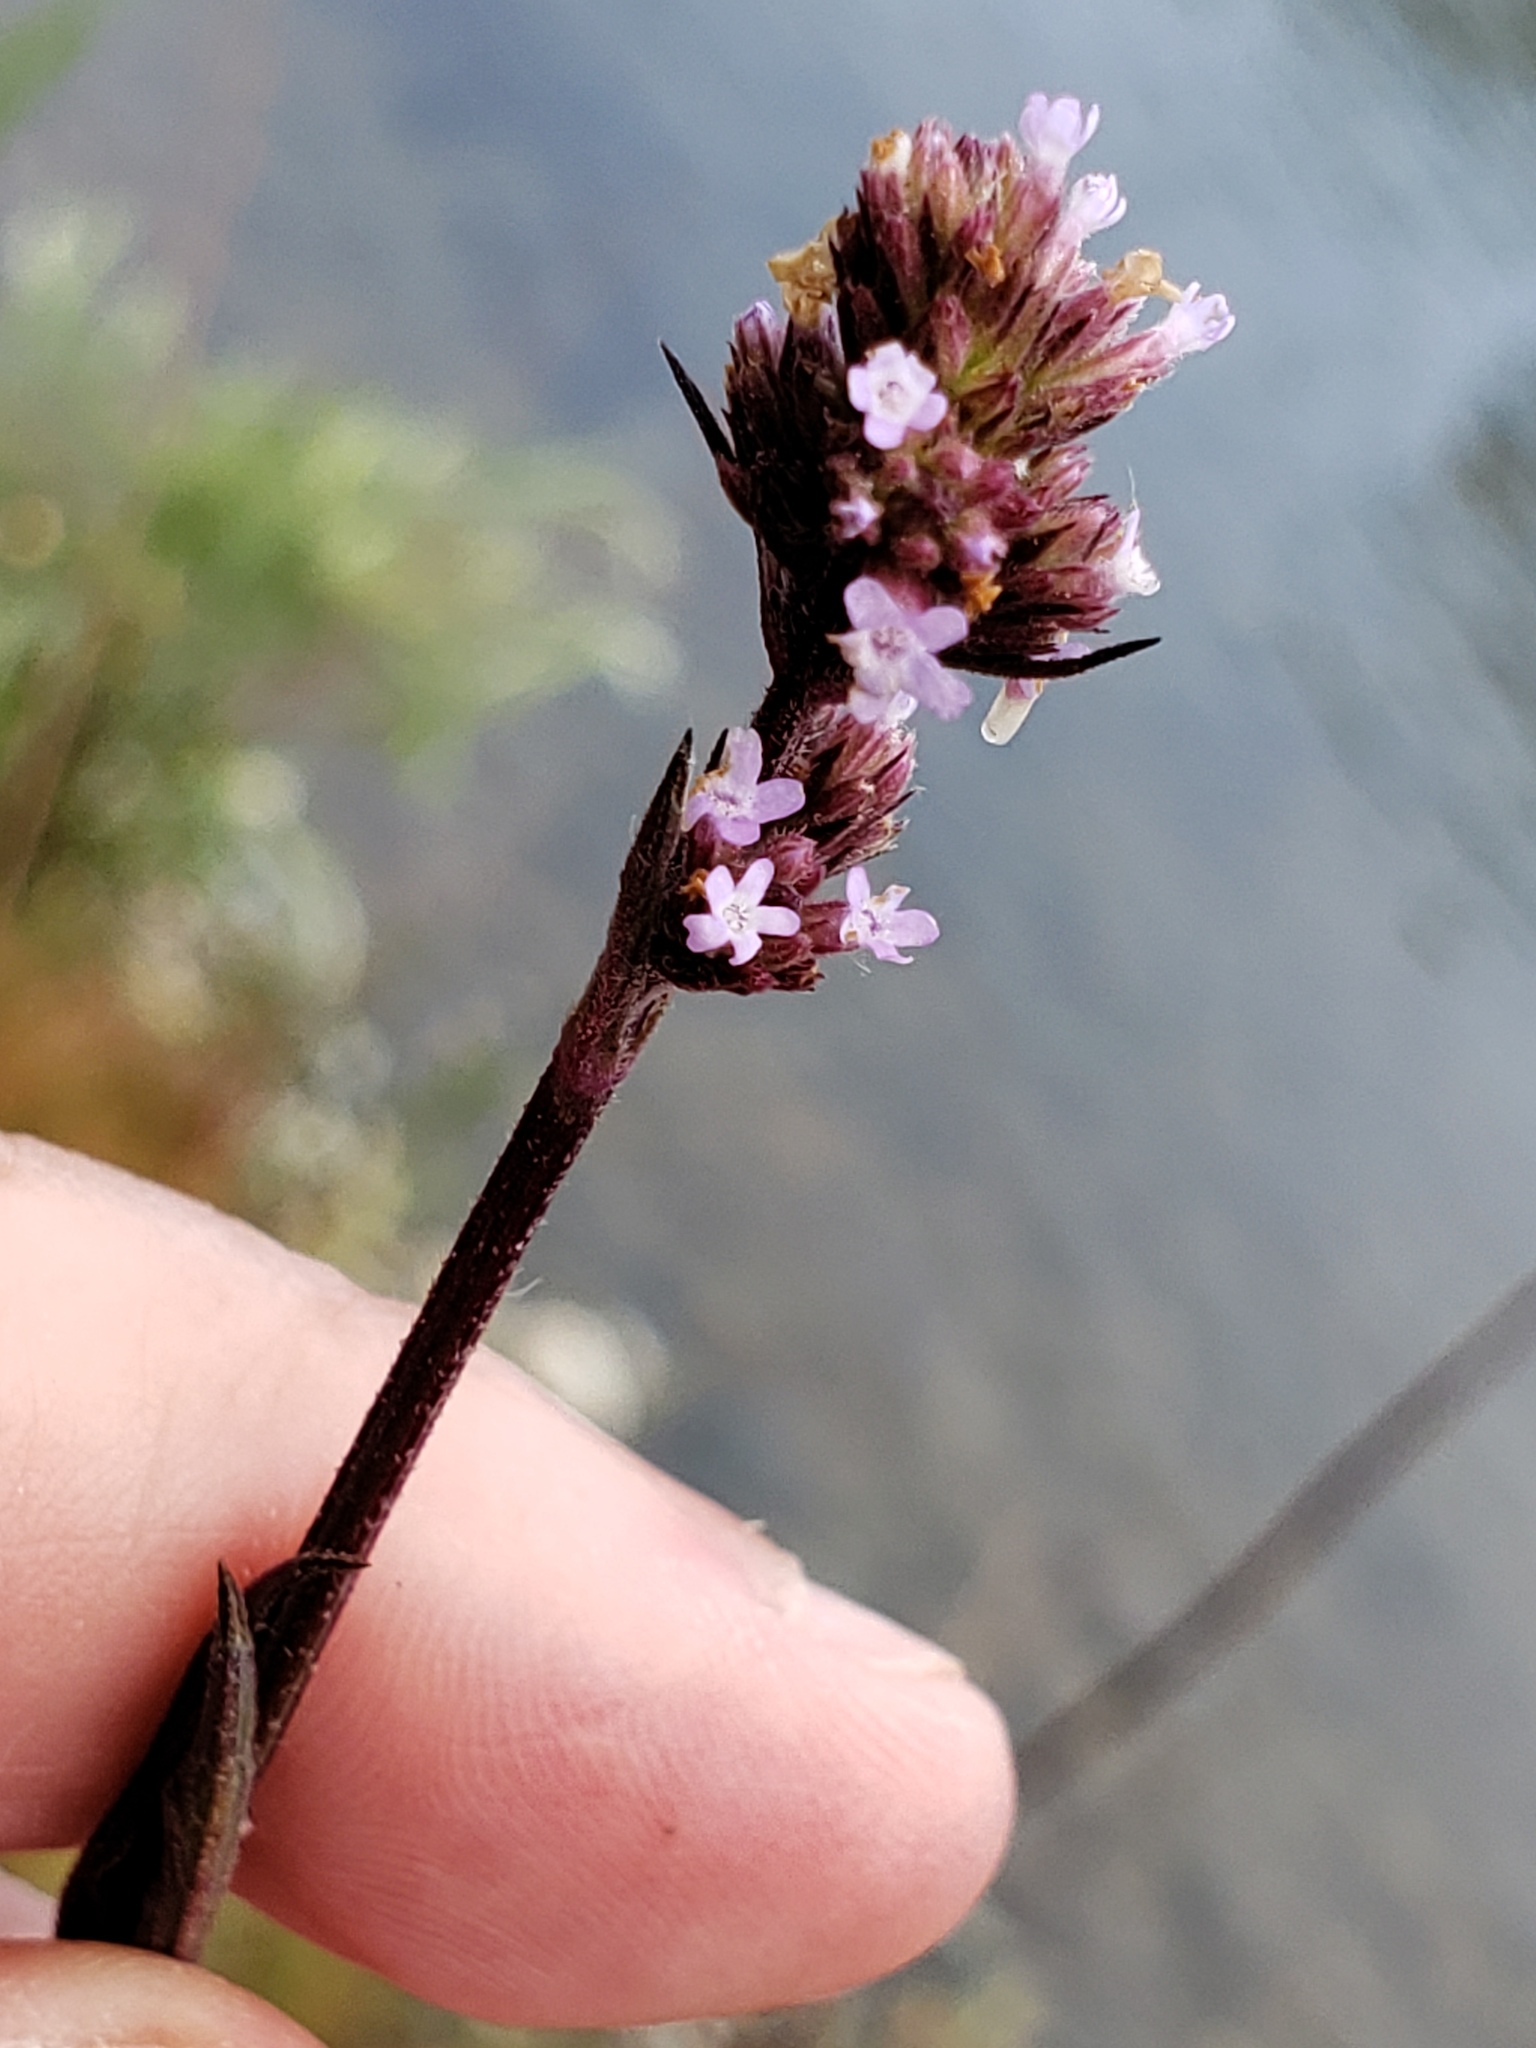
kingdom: Plantae
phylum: Tracheophyta
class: Magnoliopsida
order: Lamiales
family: Verbenaceae
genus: Verbena
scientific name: Verbena brasiliensis
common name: Brazilian vervain
